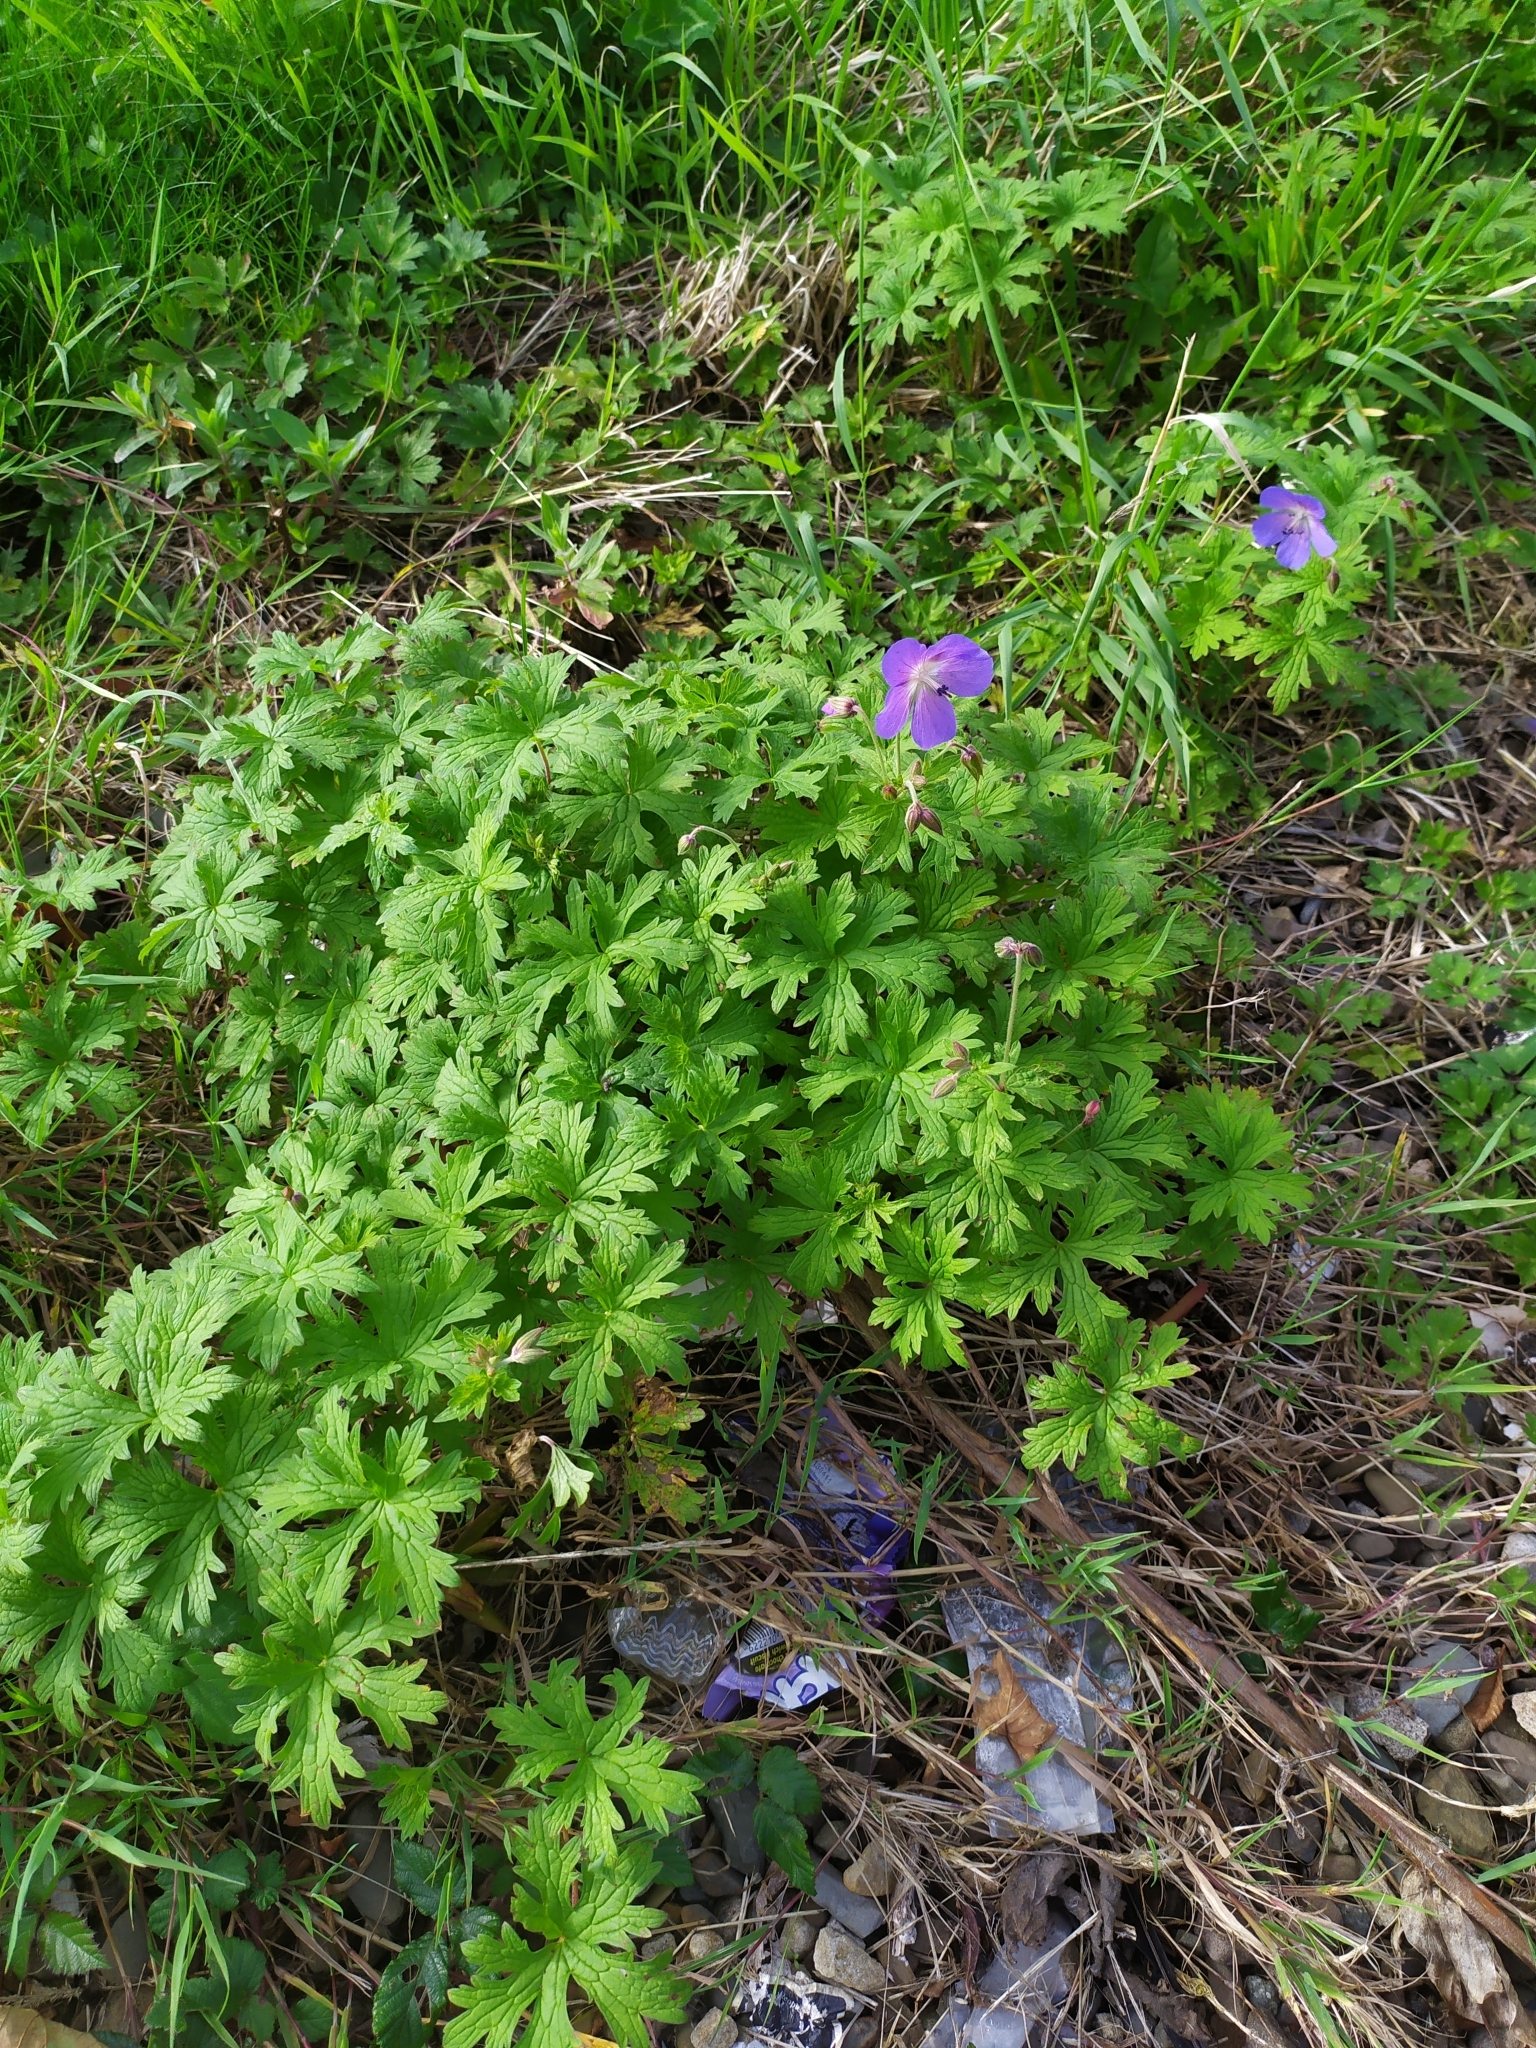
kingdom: Plantae
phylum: Tracheophyta
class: Magnoliopsida
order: Geraniales
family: Geraniaceae
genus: Geranium
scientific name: Geranium pratense
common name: Meadow crane's-bill
